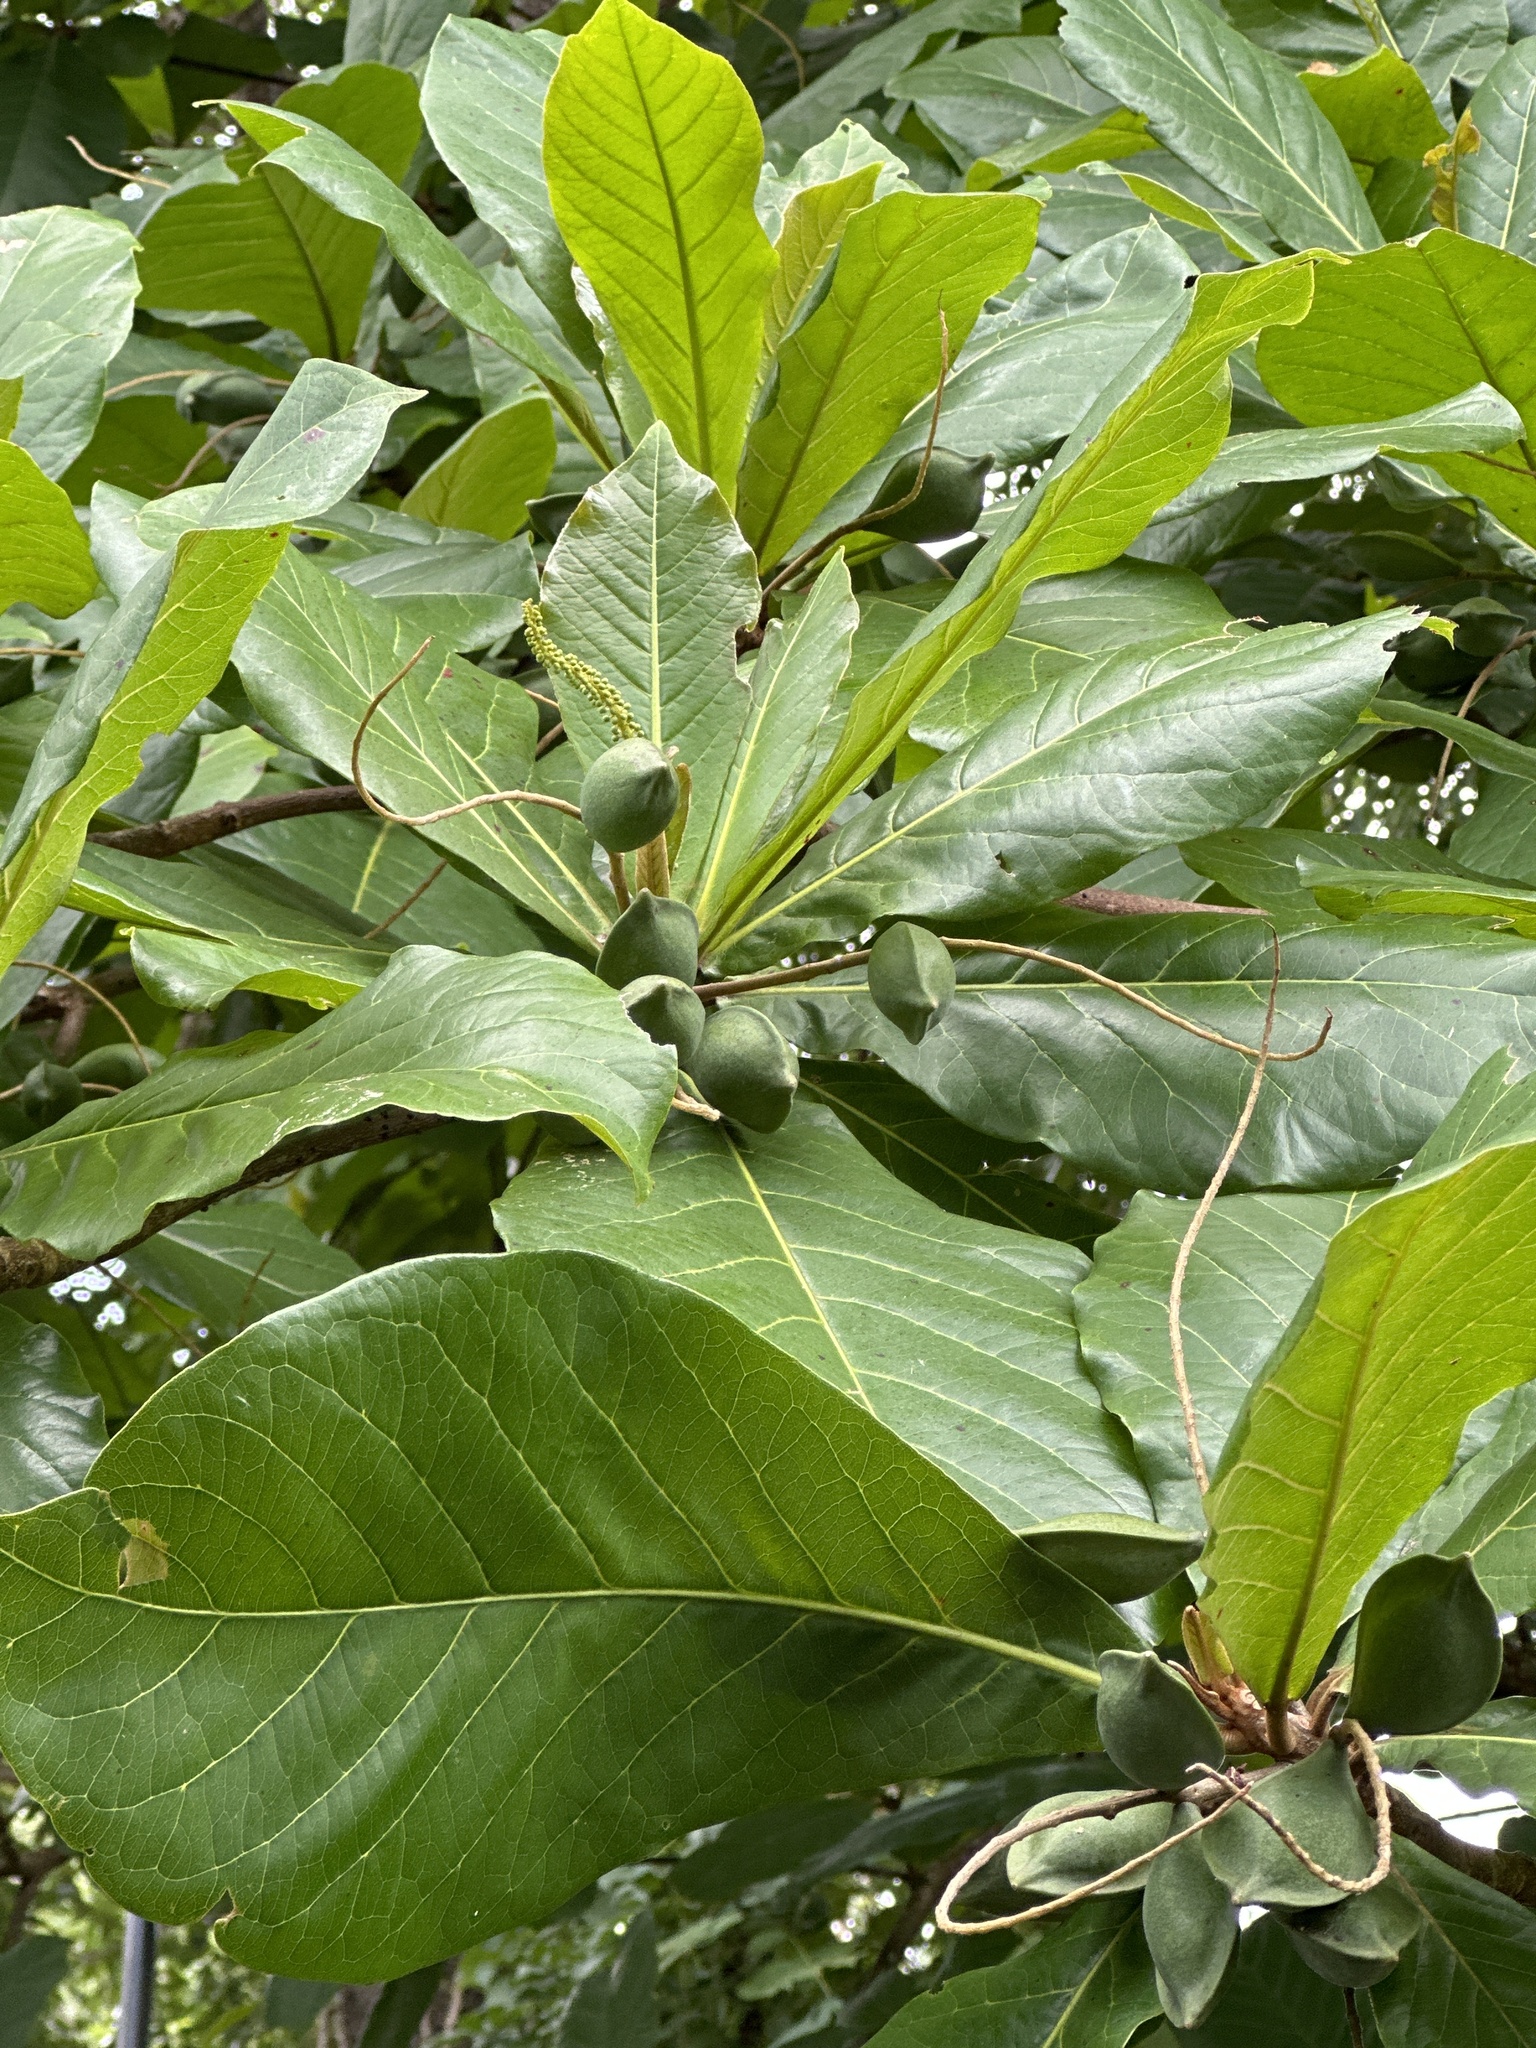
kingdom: Plantae
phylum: Tracheophyta
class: Magnoliopsida
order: Myrtales
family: Combretaceae
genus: Terminalia
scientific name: Terminalia catappa
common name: Tropical almond
